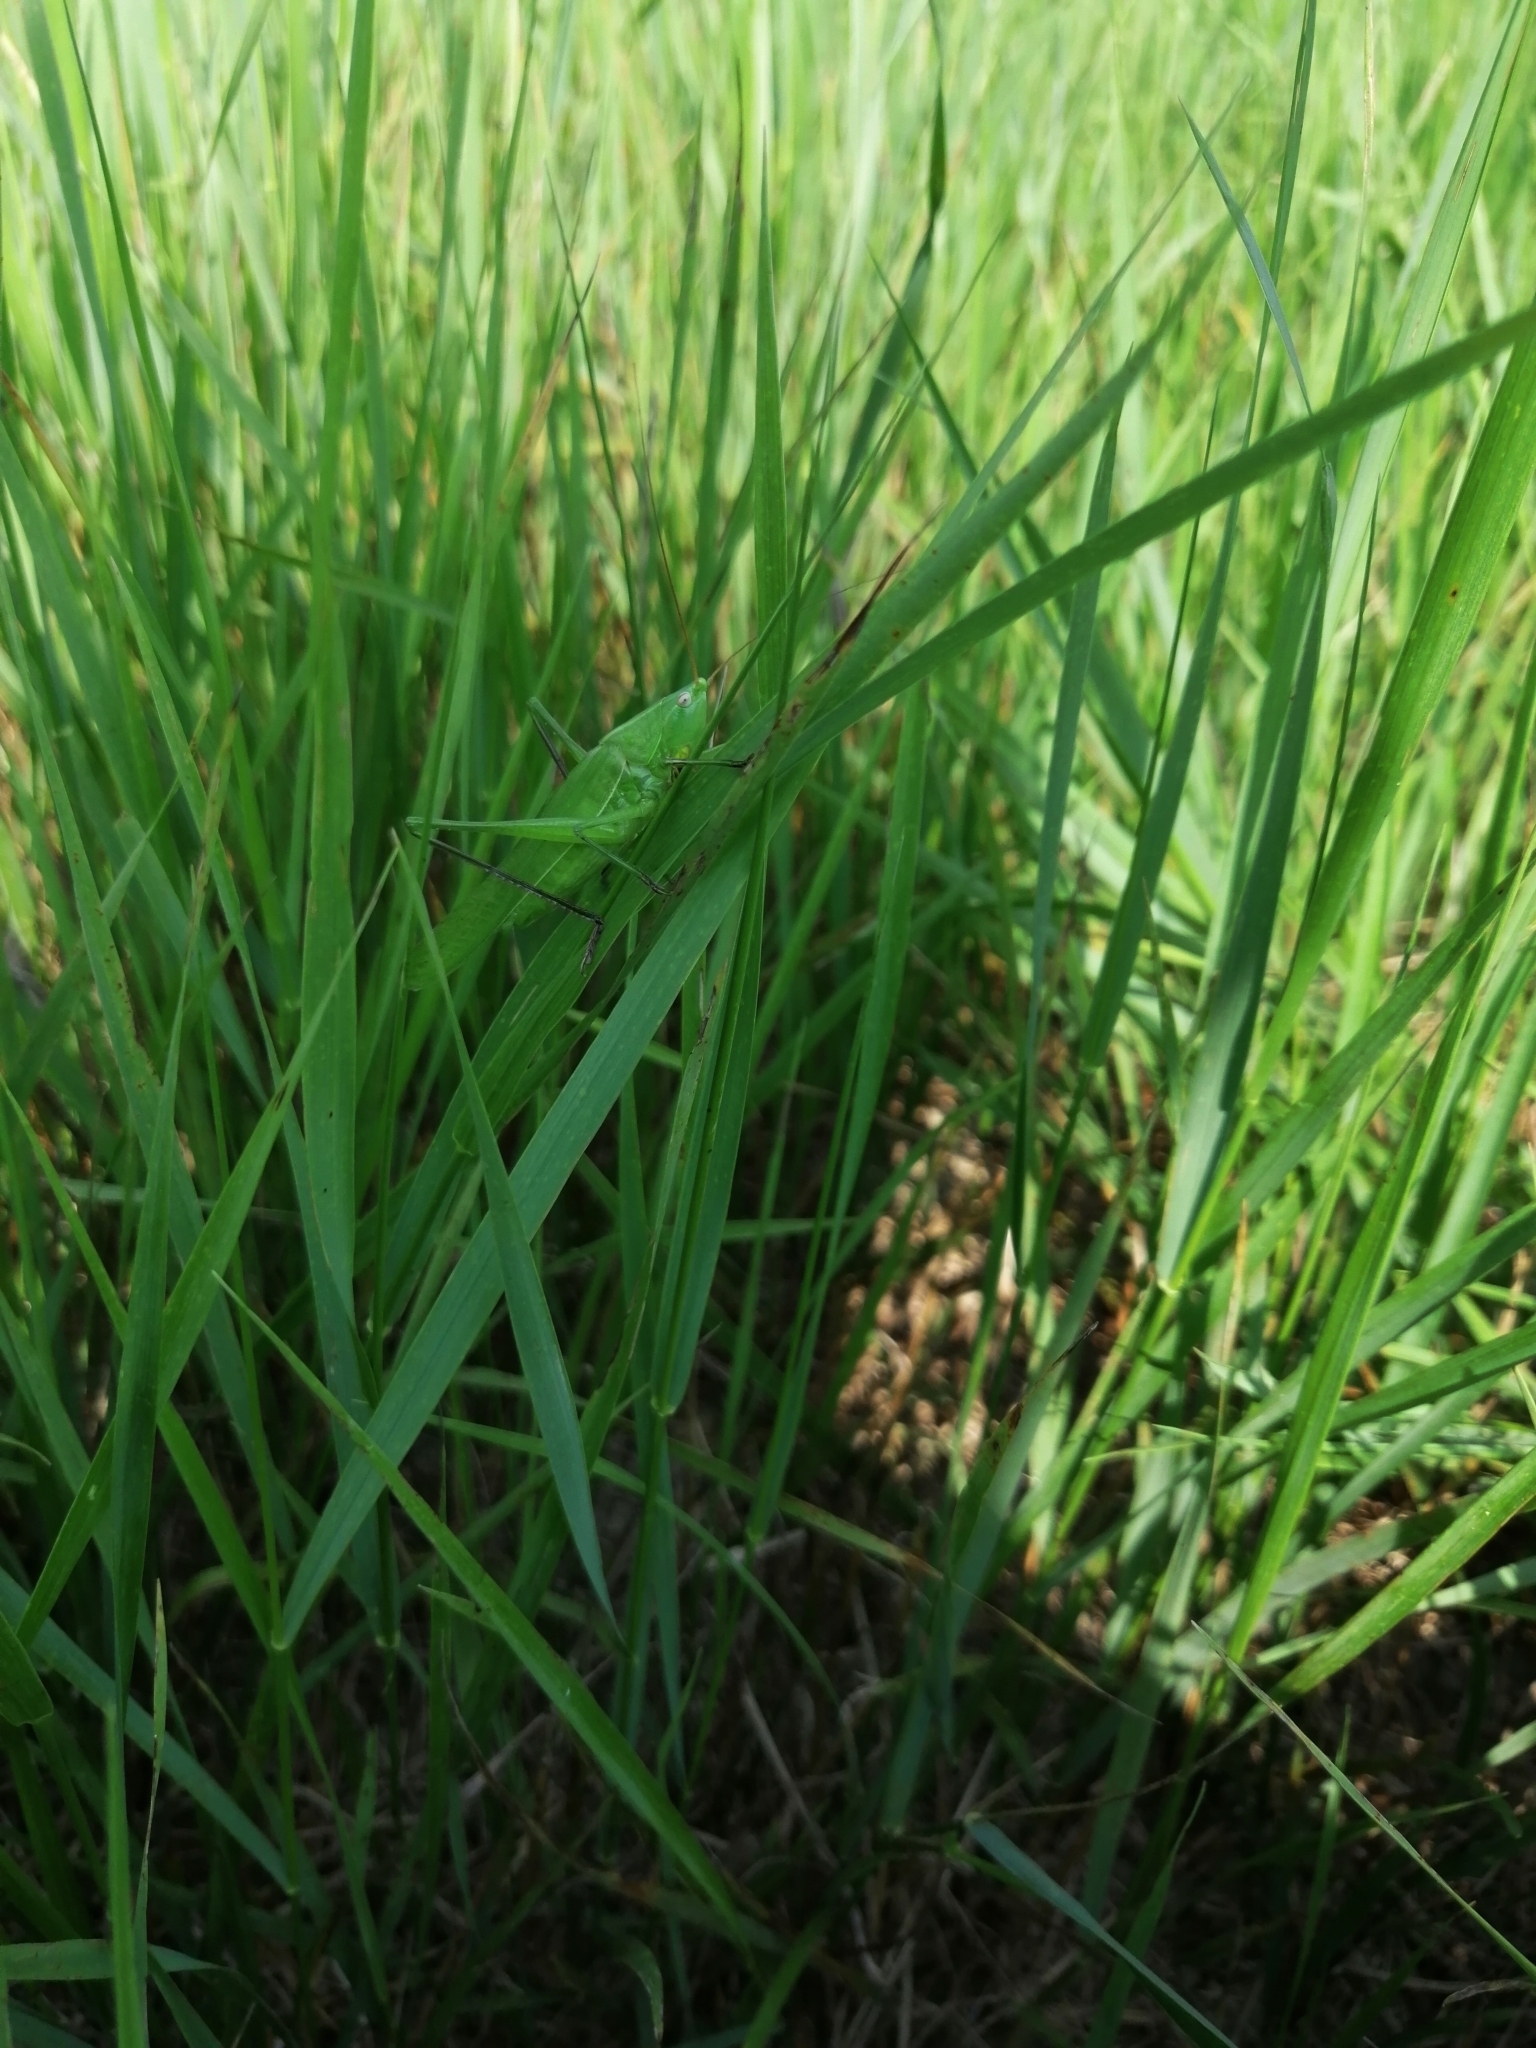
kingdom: Animalia
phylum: Arthropoda
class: Insecta
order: Orthoptera
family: Tettigoniidae
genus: Ruspolia
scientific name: Ruspolia nitidula
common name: Large conehead
